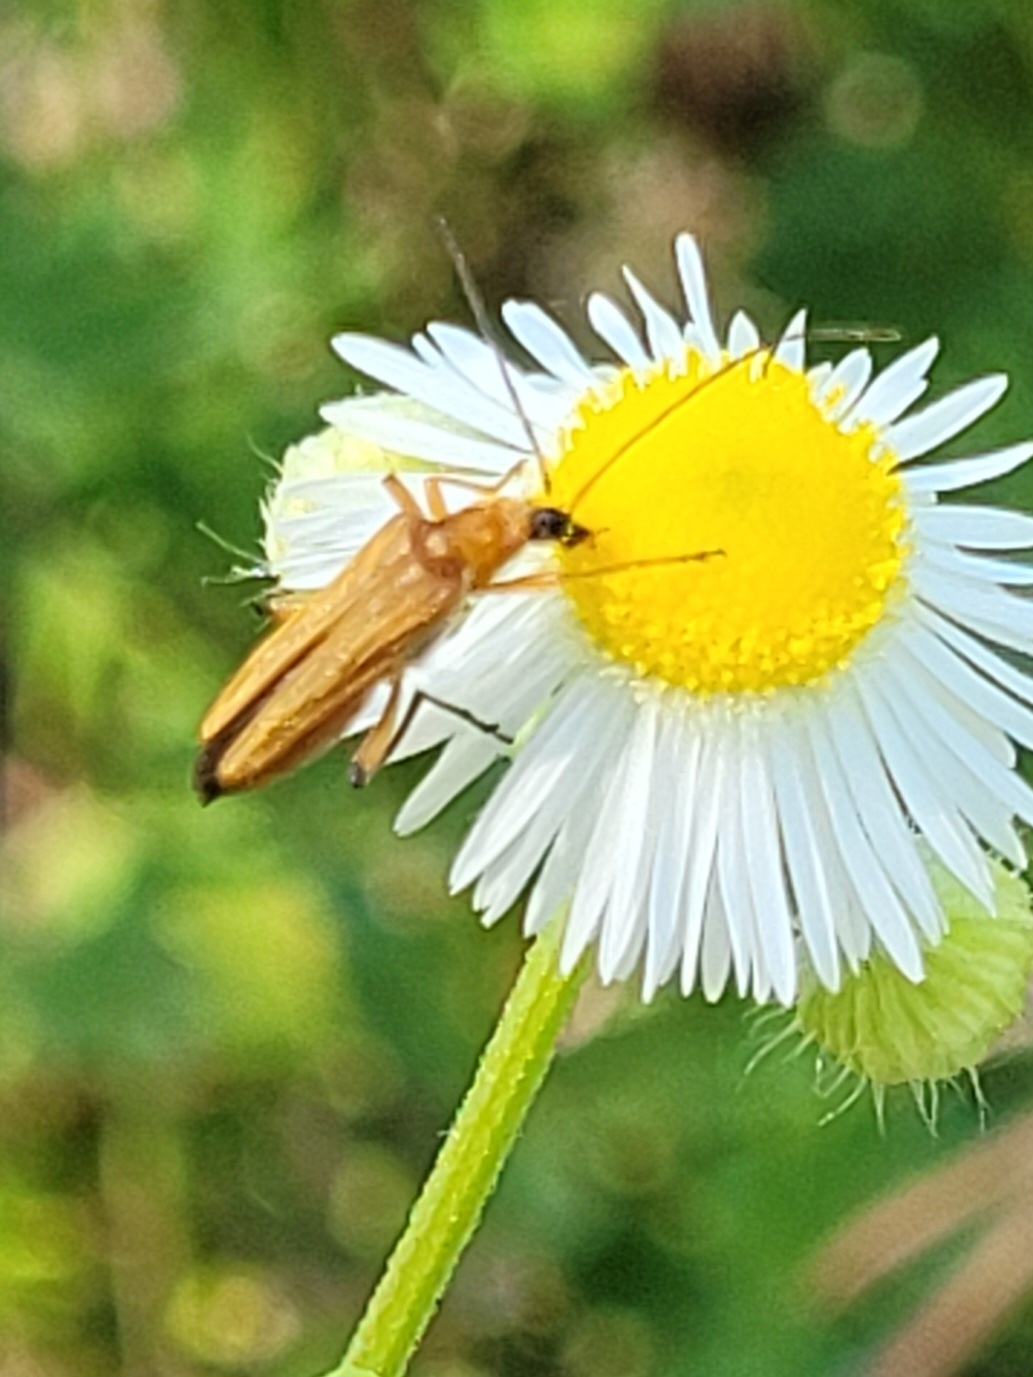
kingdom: Animalia
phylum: Arthropoda
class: Insecta
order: Coleoptera
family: Oedemeridae
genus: Oedemera
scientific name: Oedemera podagrariae
